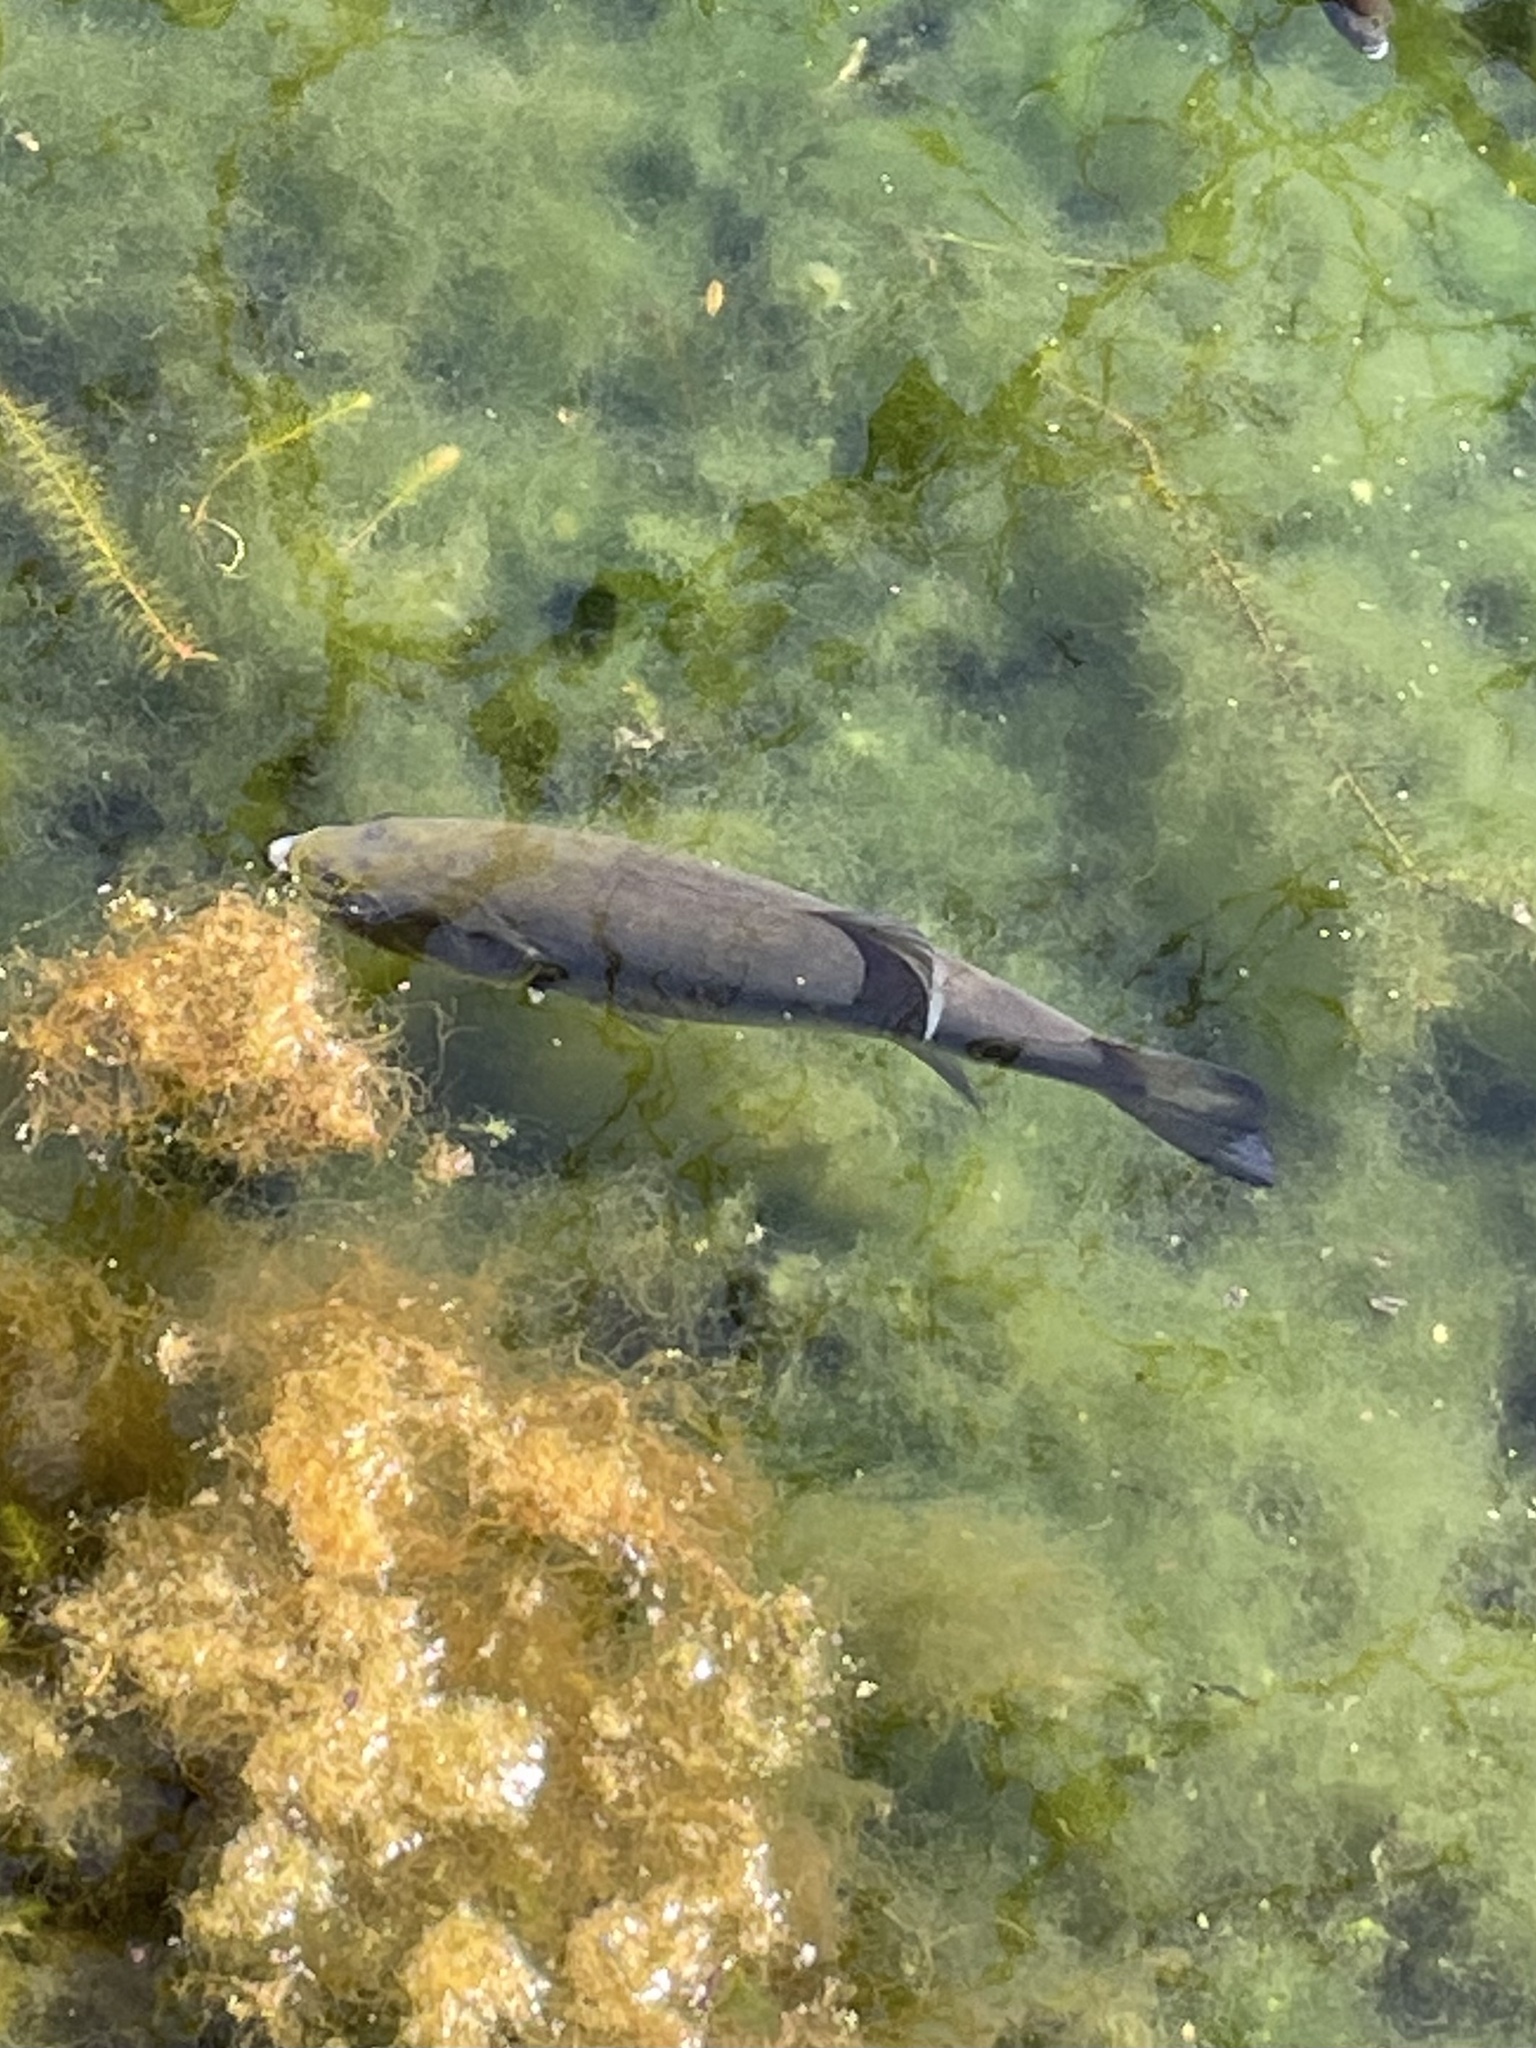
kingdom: Animalia
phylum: Chordata
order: Perciformes
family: Centrarchidae
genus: Micropterus
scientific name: Micropterus
